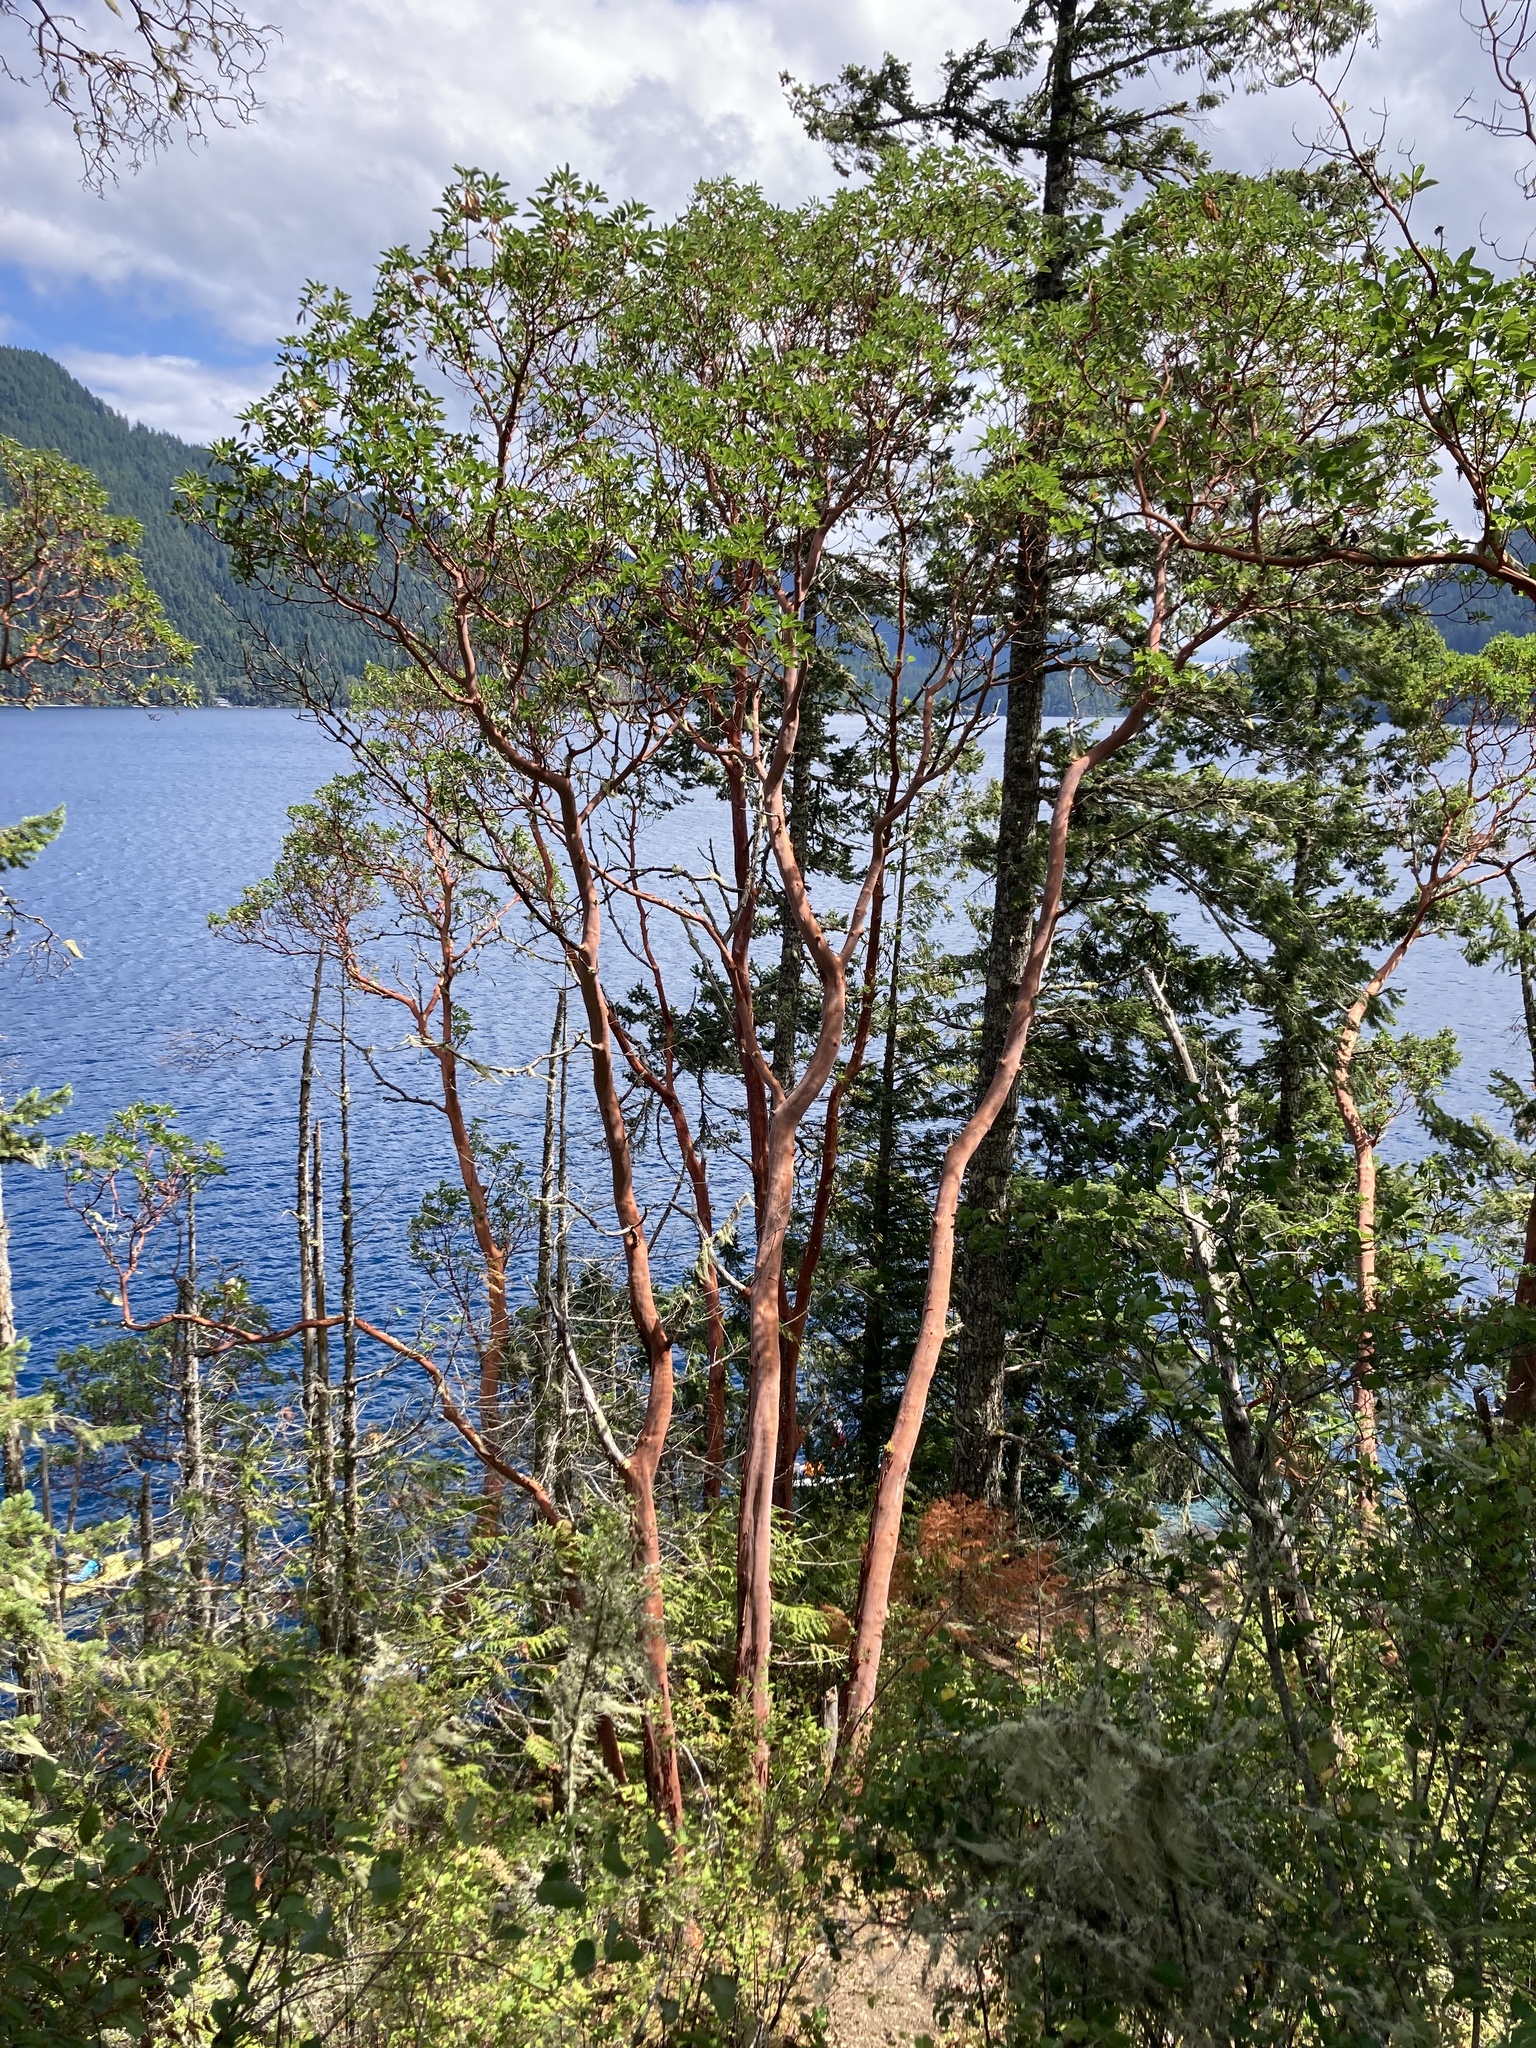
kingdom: Plantae
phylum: Tracheophyta
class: Magnoliopsida
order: Ericales
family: Ericaceae
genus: Arbutus
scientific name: Arbutus menziesii
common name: Pacific madrone
